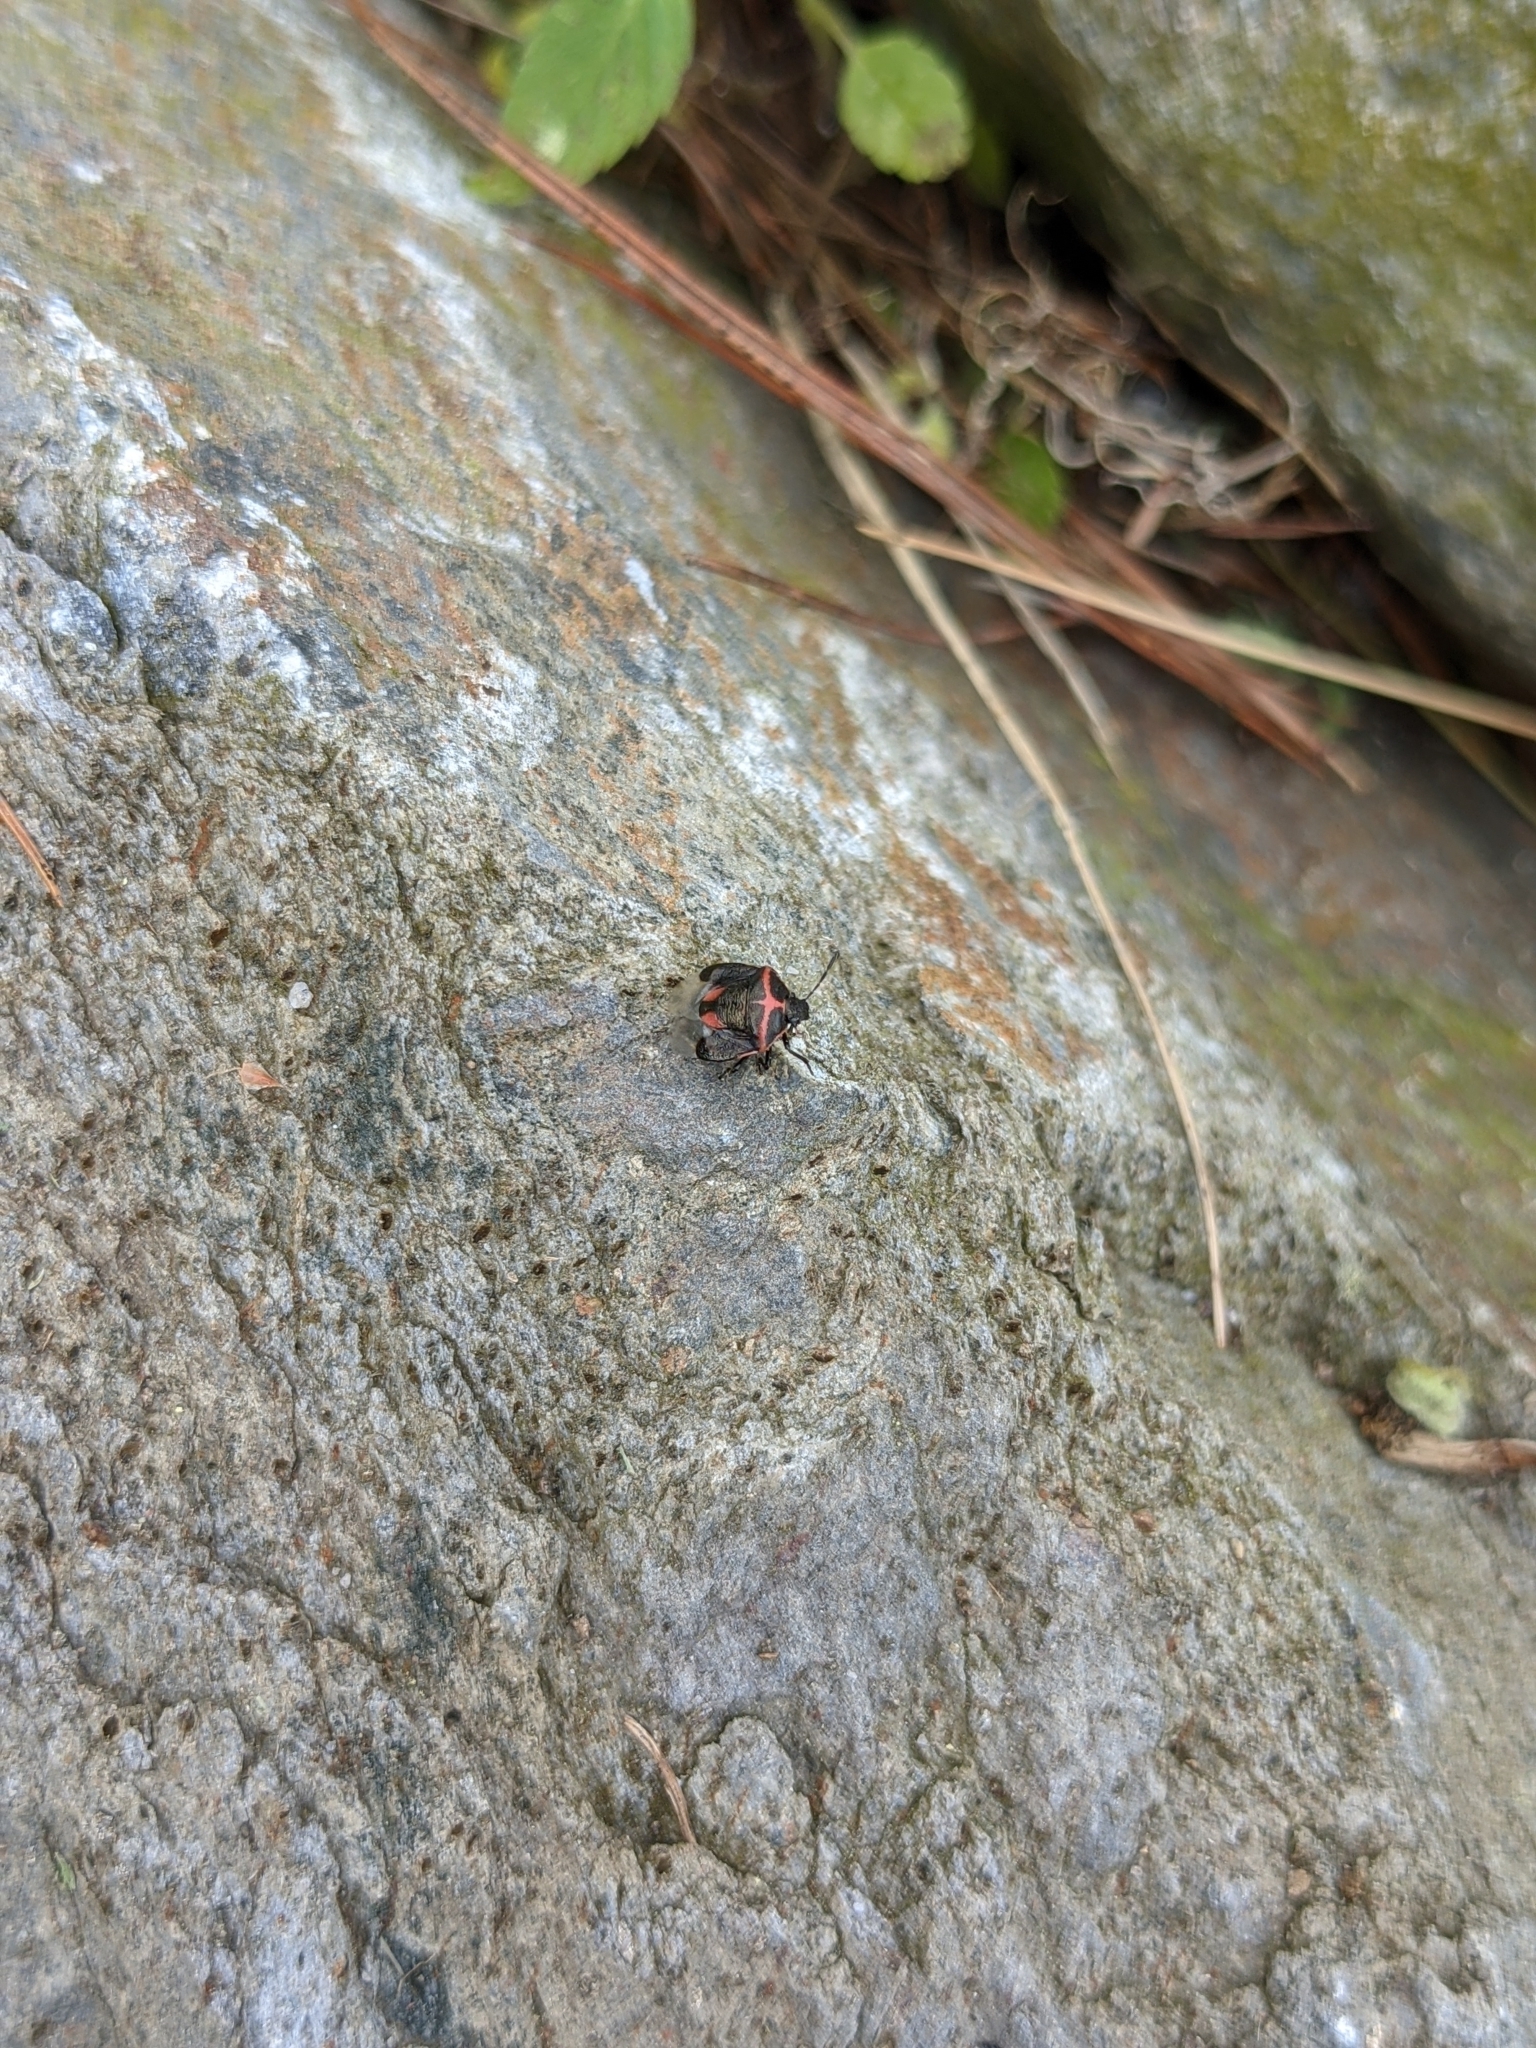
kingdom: Animalia
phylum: Arthropoda
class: Insecta
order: Hemiptera
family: Pentatomidae
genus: Cosmopepla
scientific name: Cosmopepla lintneriana
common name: Twice-stabbed stink bug
